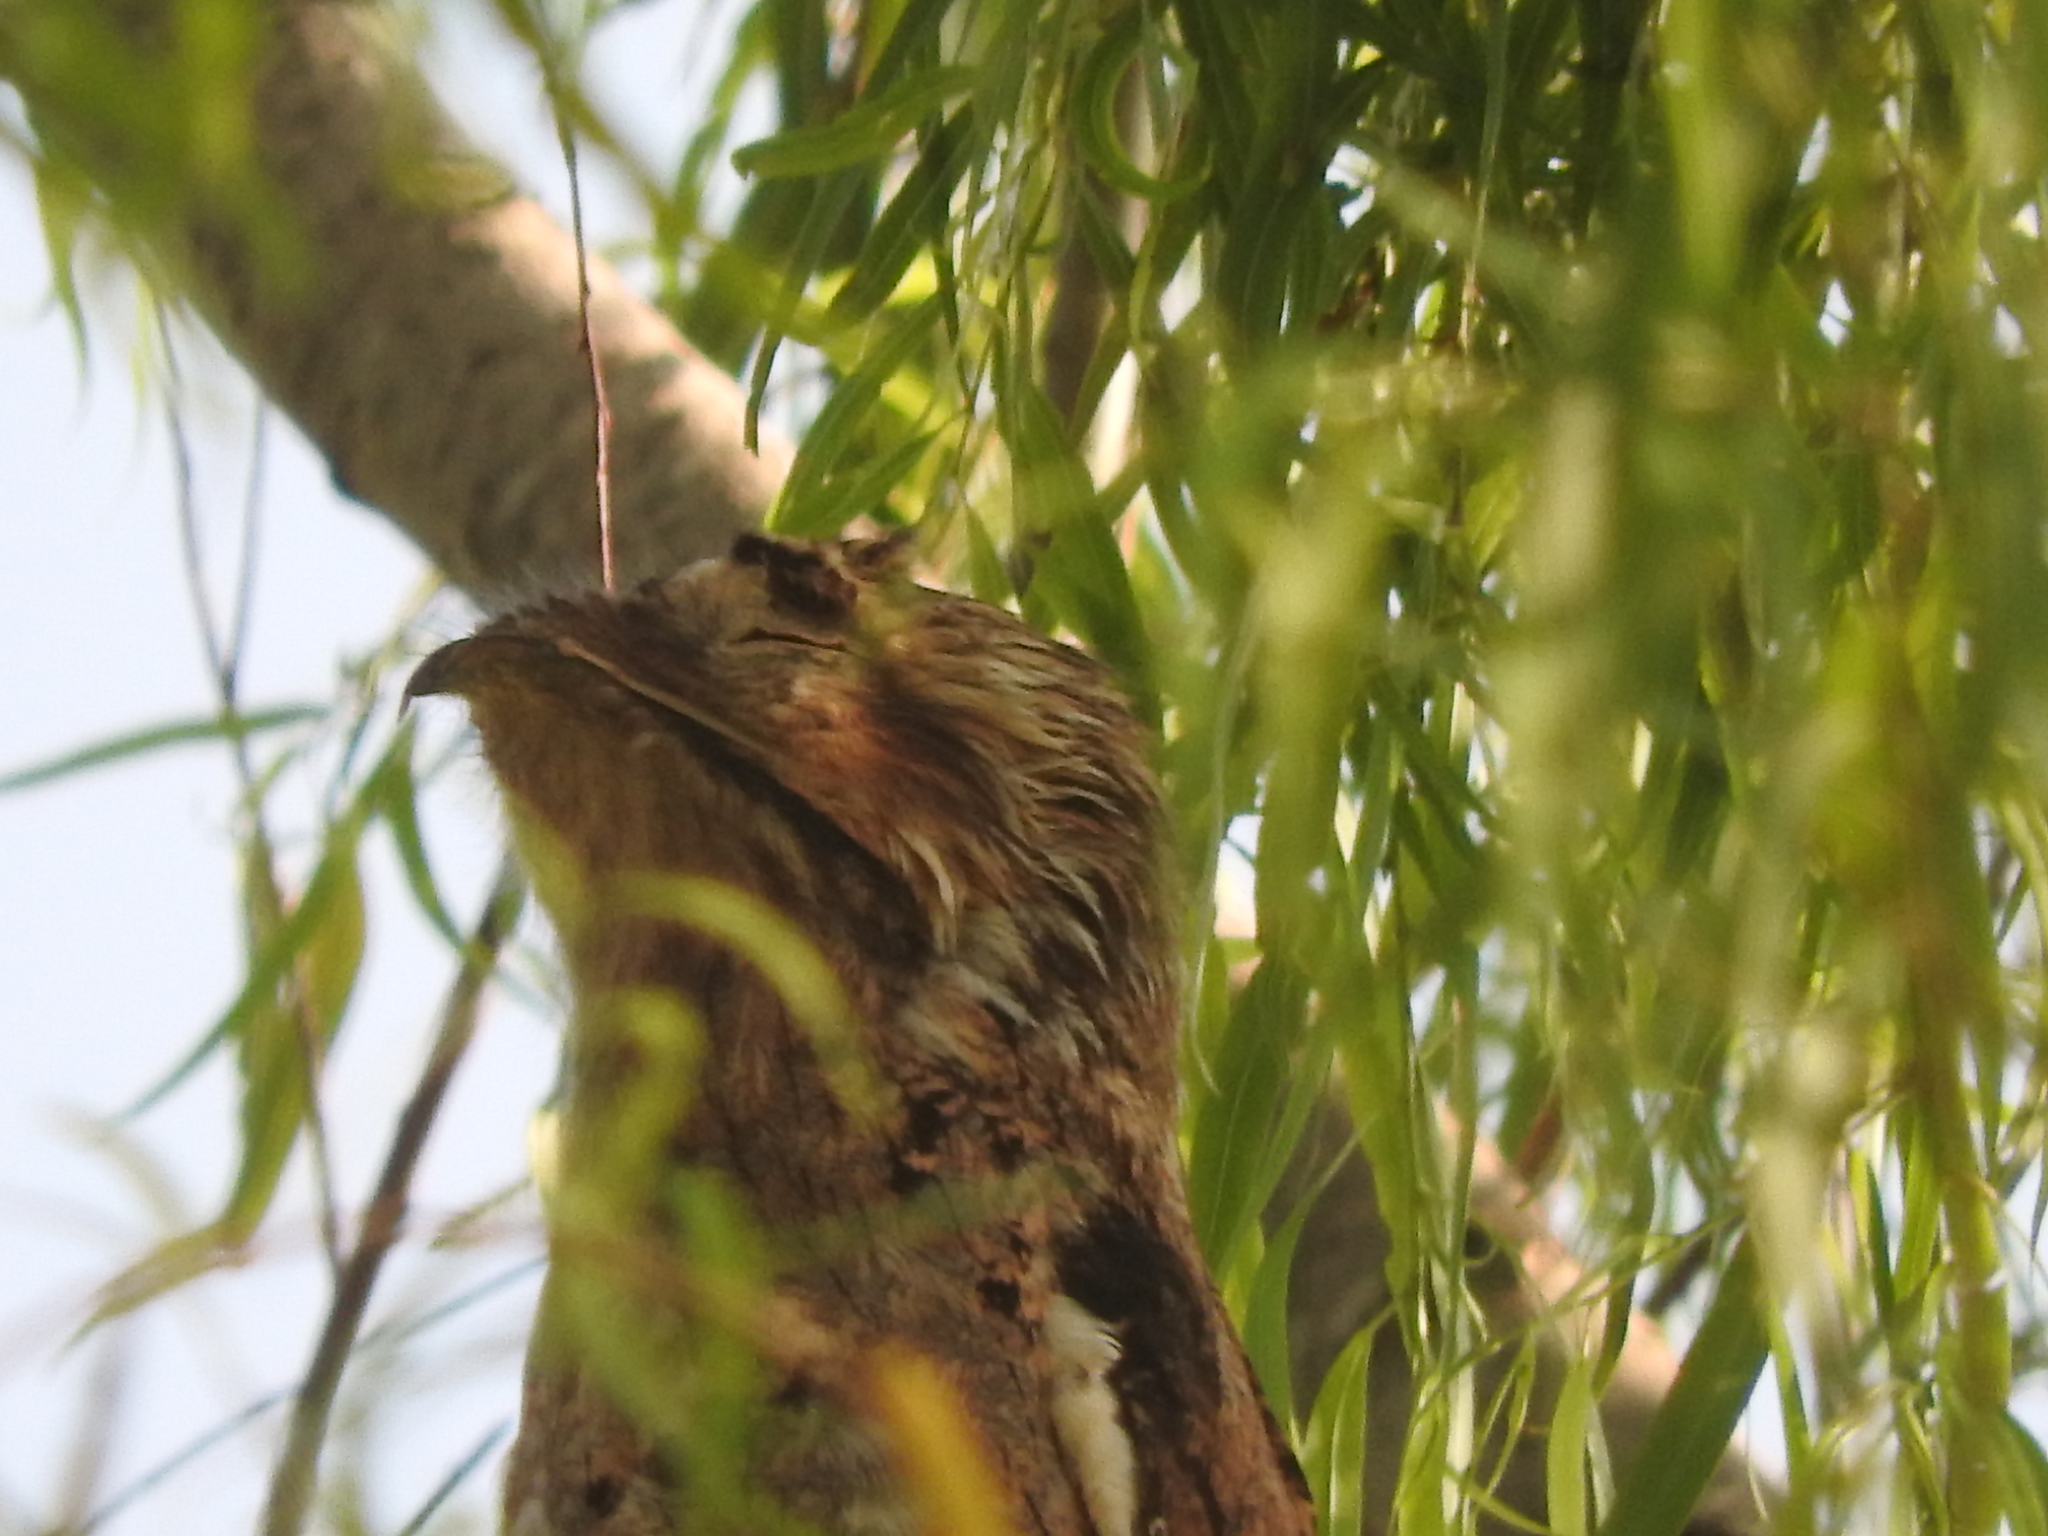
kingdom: Animalia
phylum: Chordata
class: Aves
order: Nyctibiiformes
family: Nyctibiidae
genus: Nyctibius
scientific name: Nyctibius jamaicensis
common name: Northern potoo
